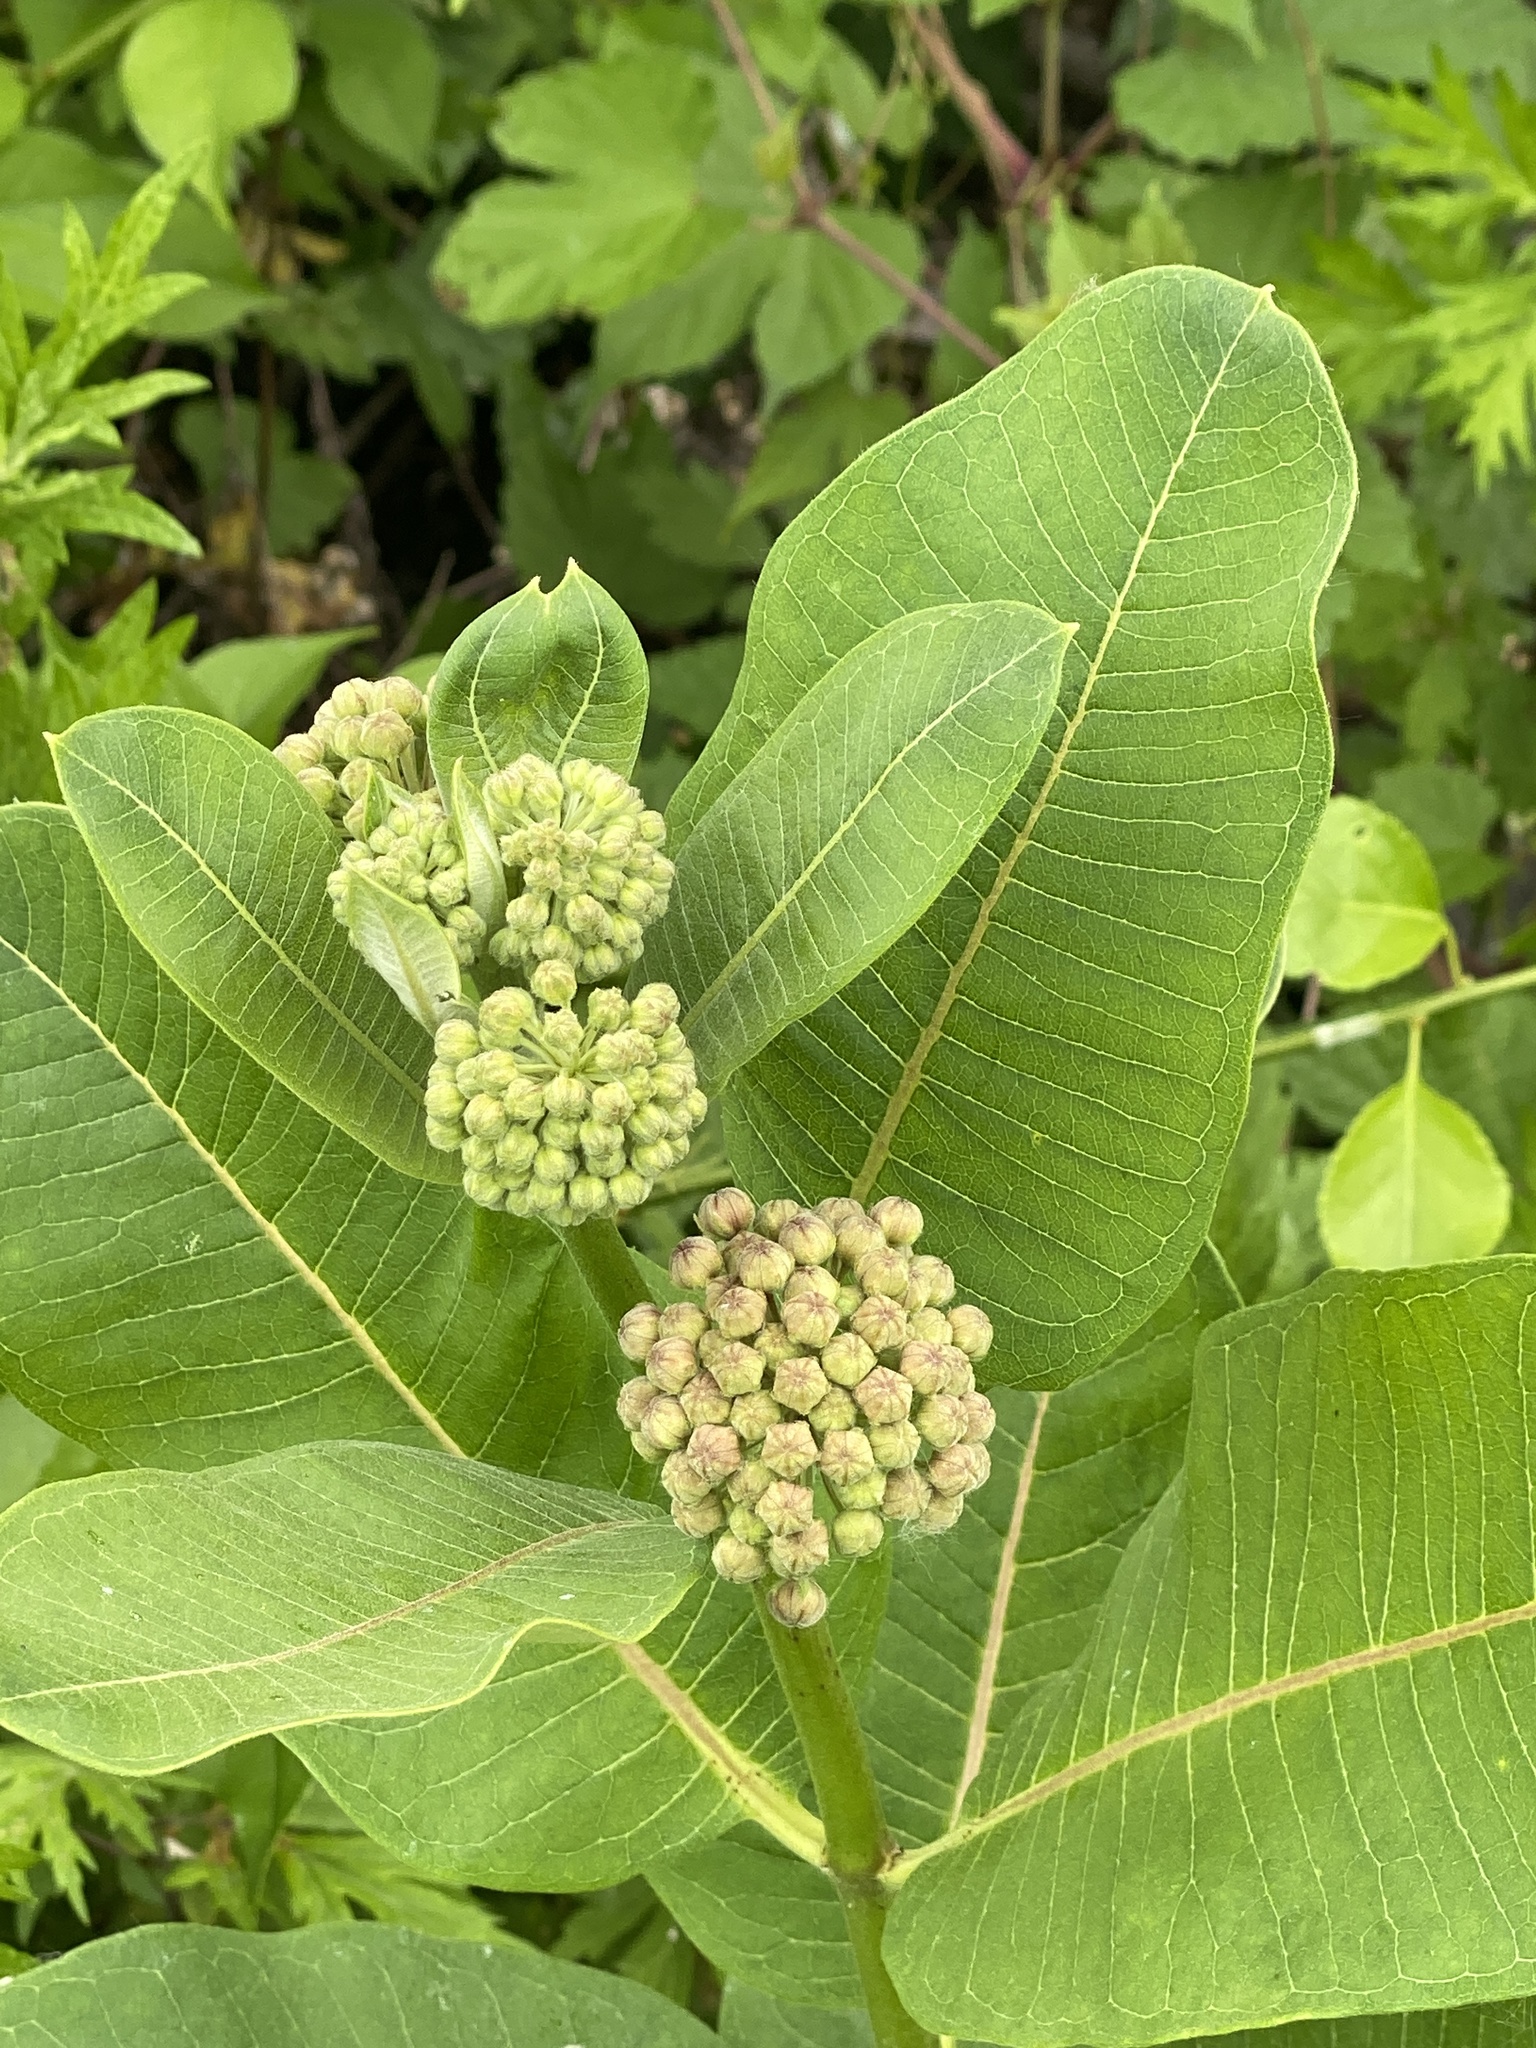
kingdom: Plantae
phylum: Tracheophyta
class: Magnoliopsida
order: Gentianales
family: Apocynaceae
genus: Asclepias
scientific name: Asclepias syriaca
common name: Common milkweed
